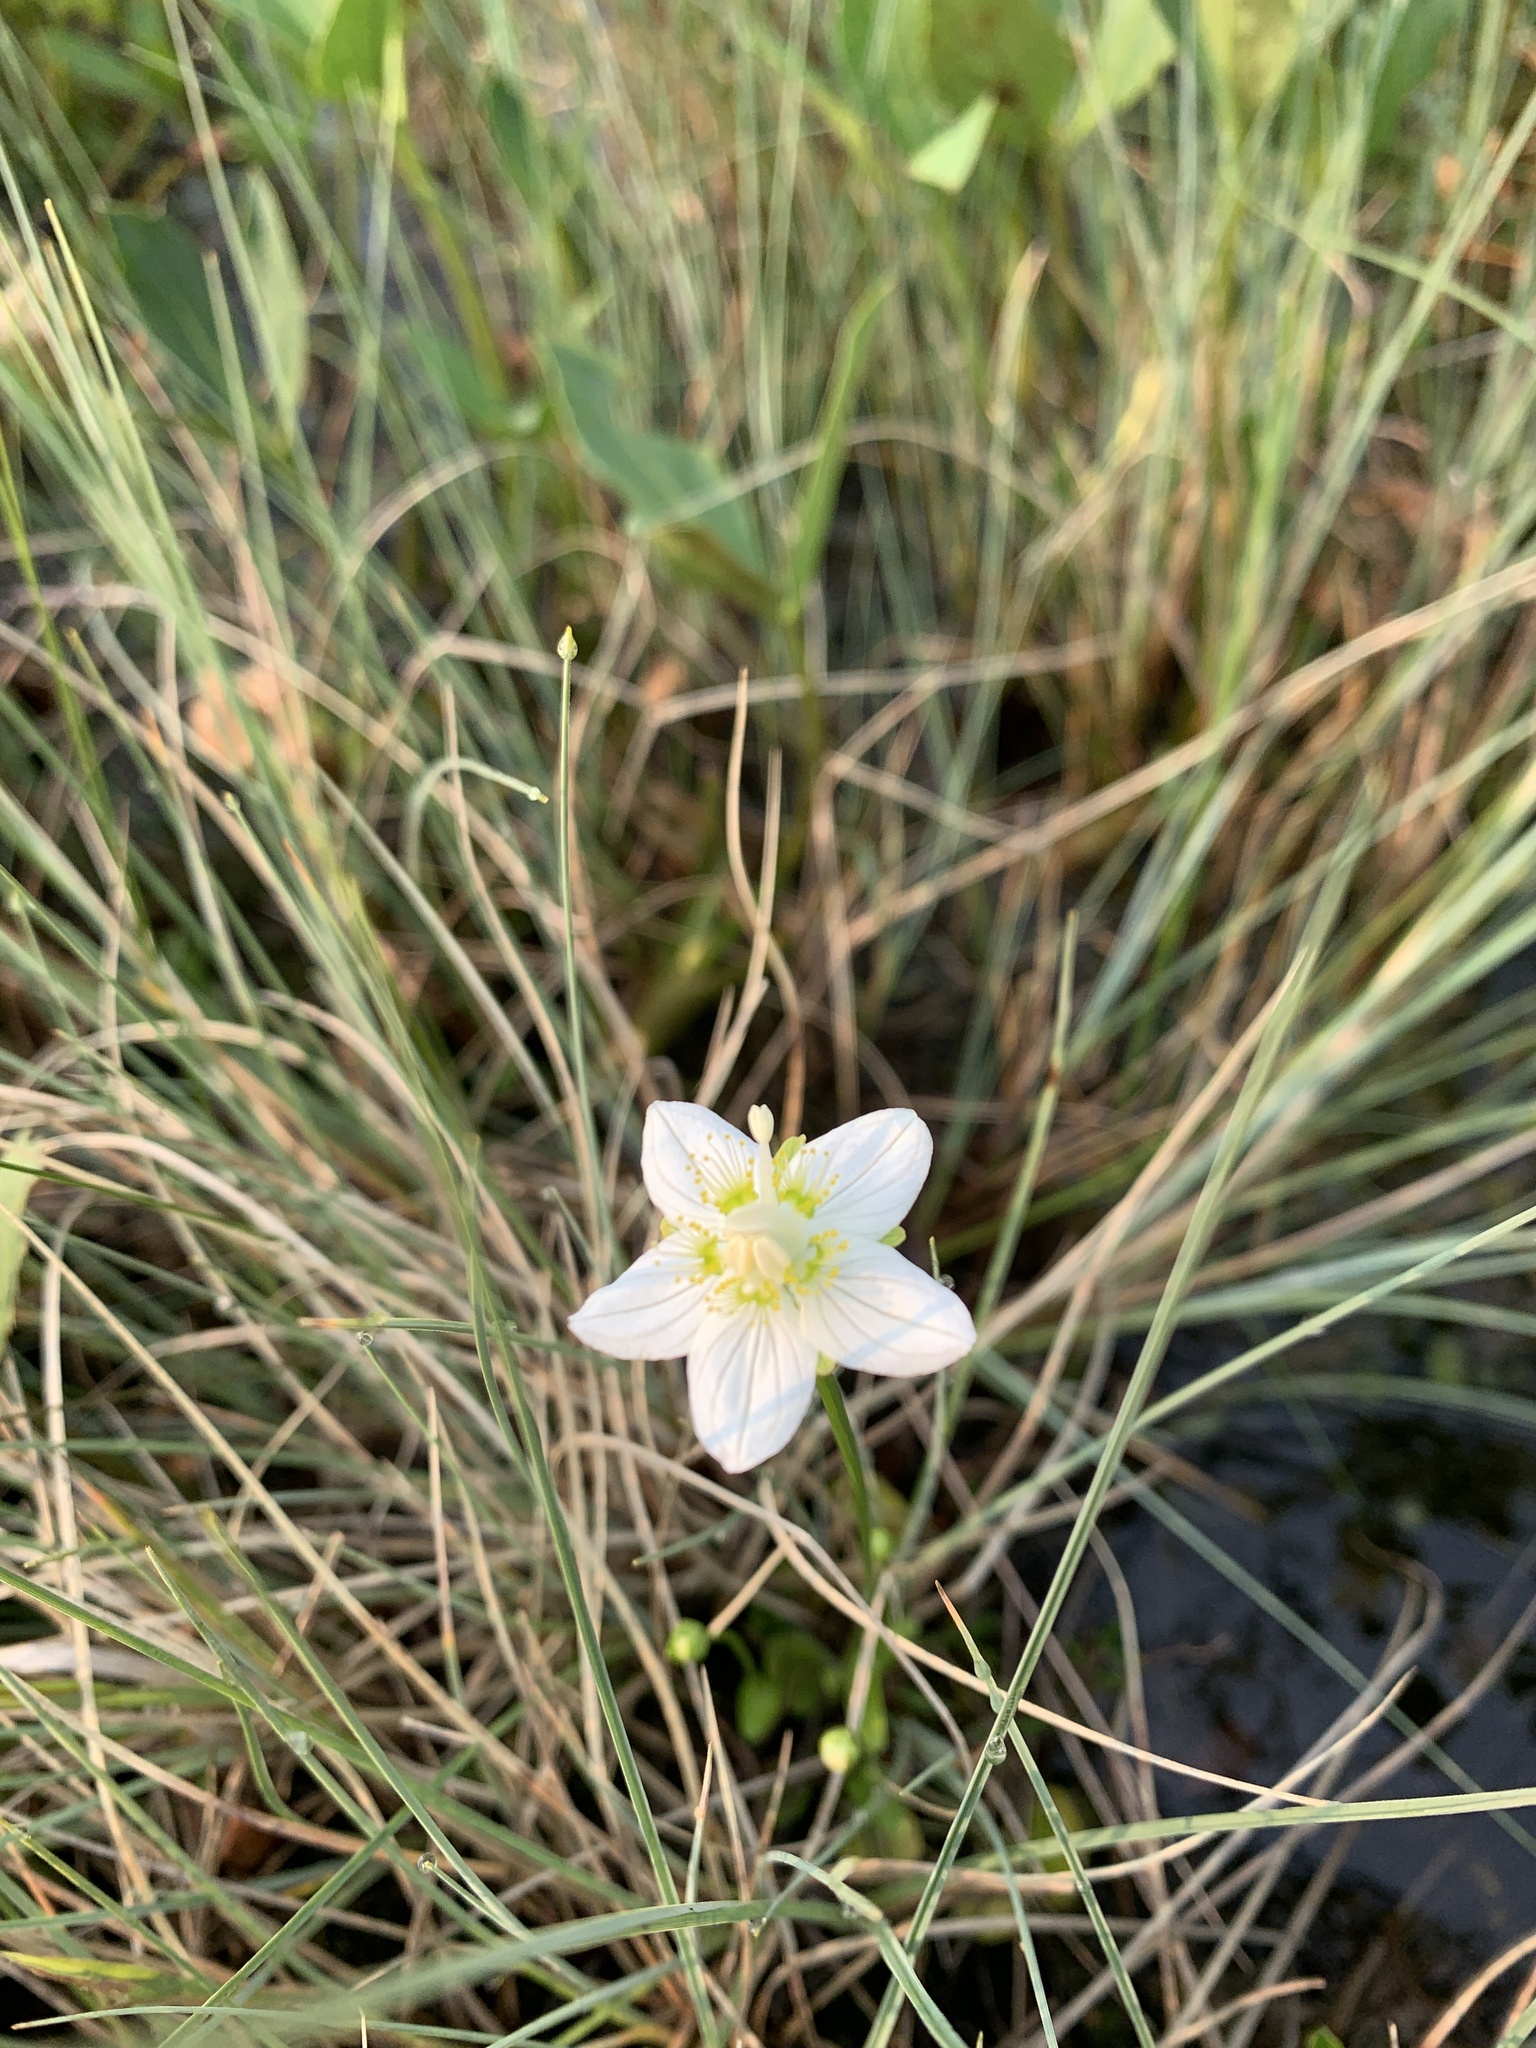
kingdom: Plantae
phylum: Tracheophyta
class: Magnoliopsida
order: Celastrales
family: Parnassiaceae
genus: Parnassia
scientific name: Parnassia palustris
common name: Grass-of-parnassus
